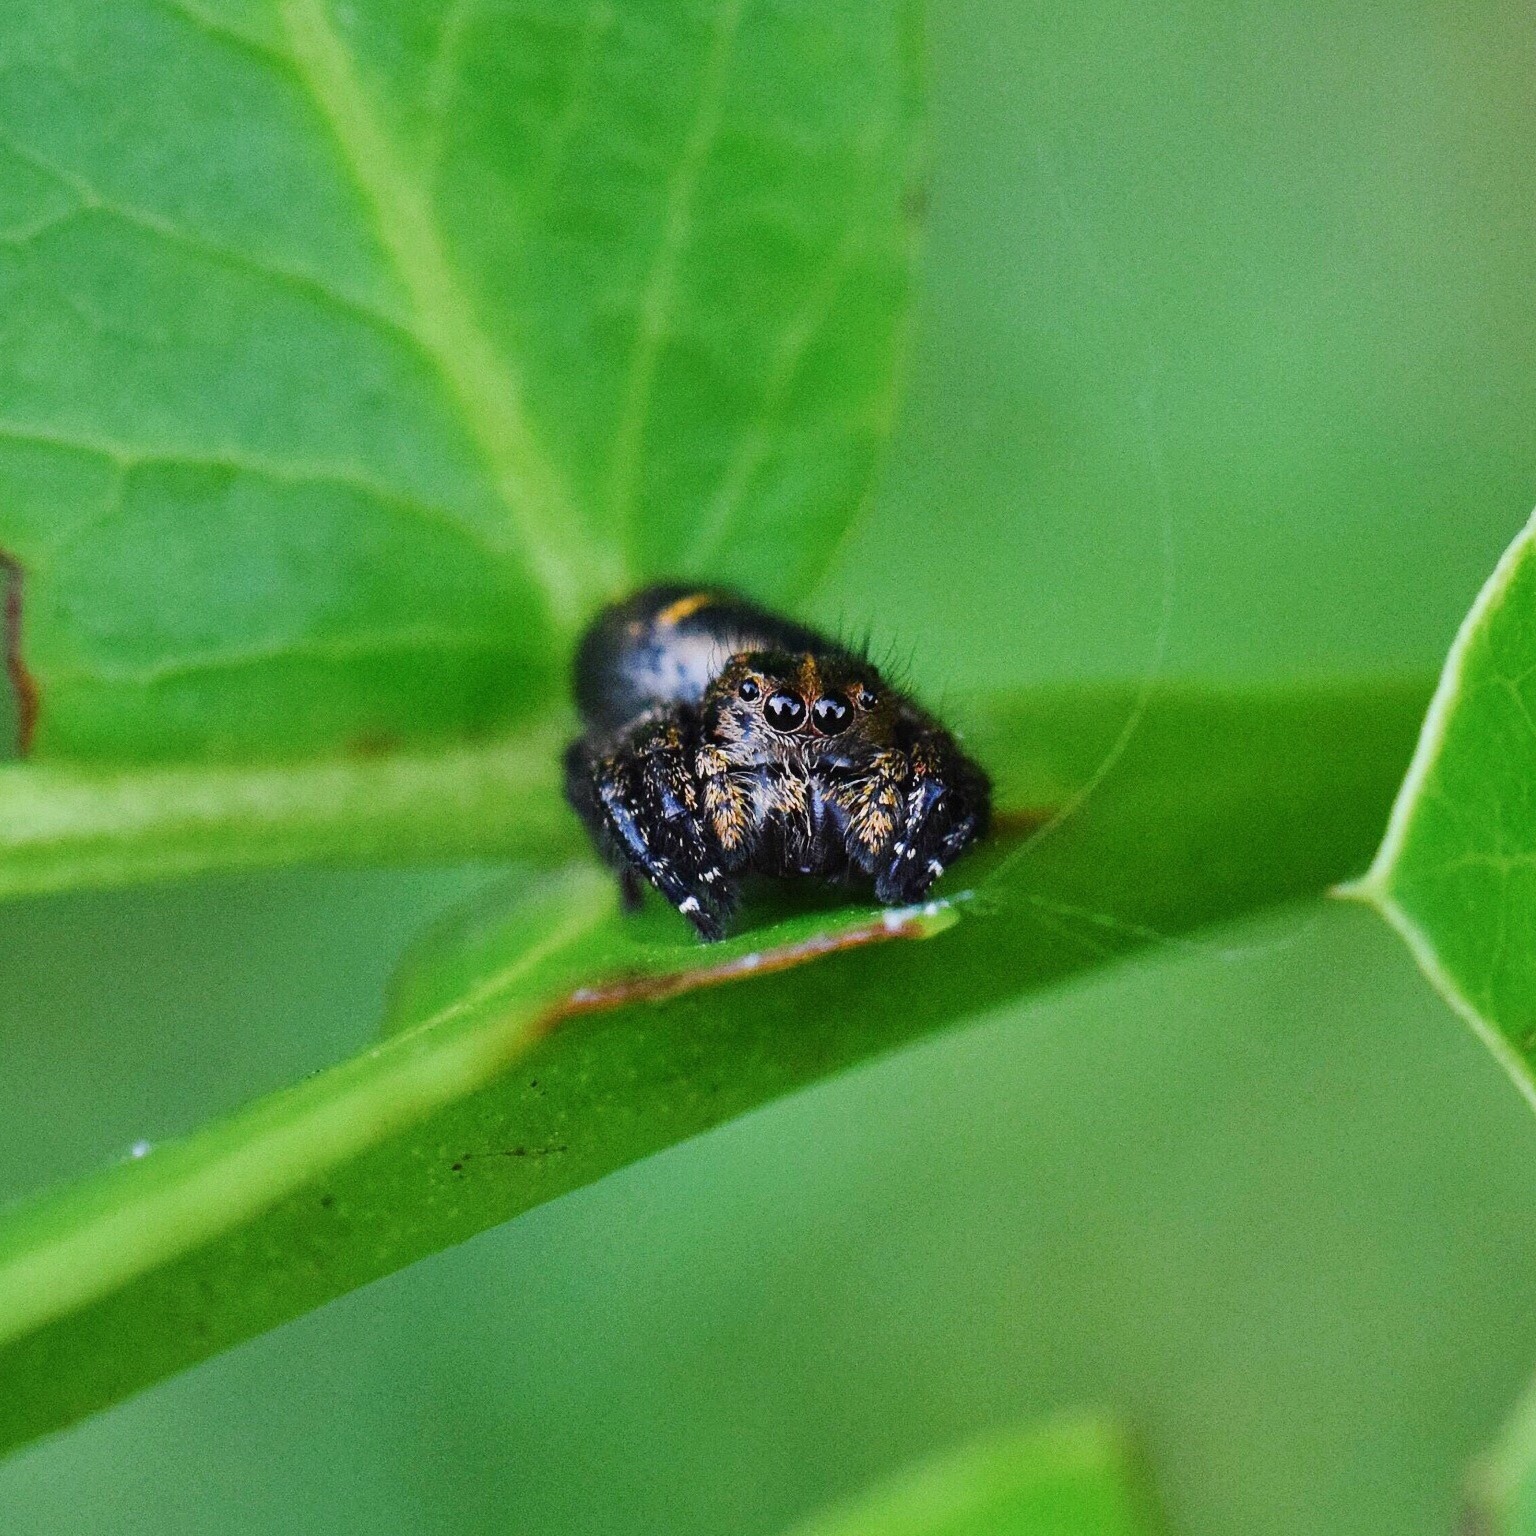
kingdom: Animalia
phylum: Arthropoda
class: Arachnida
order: Araneae
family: Salticidae
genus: Baryphas
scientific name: Baryphas ahenus
